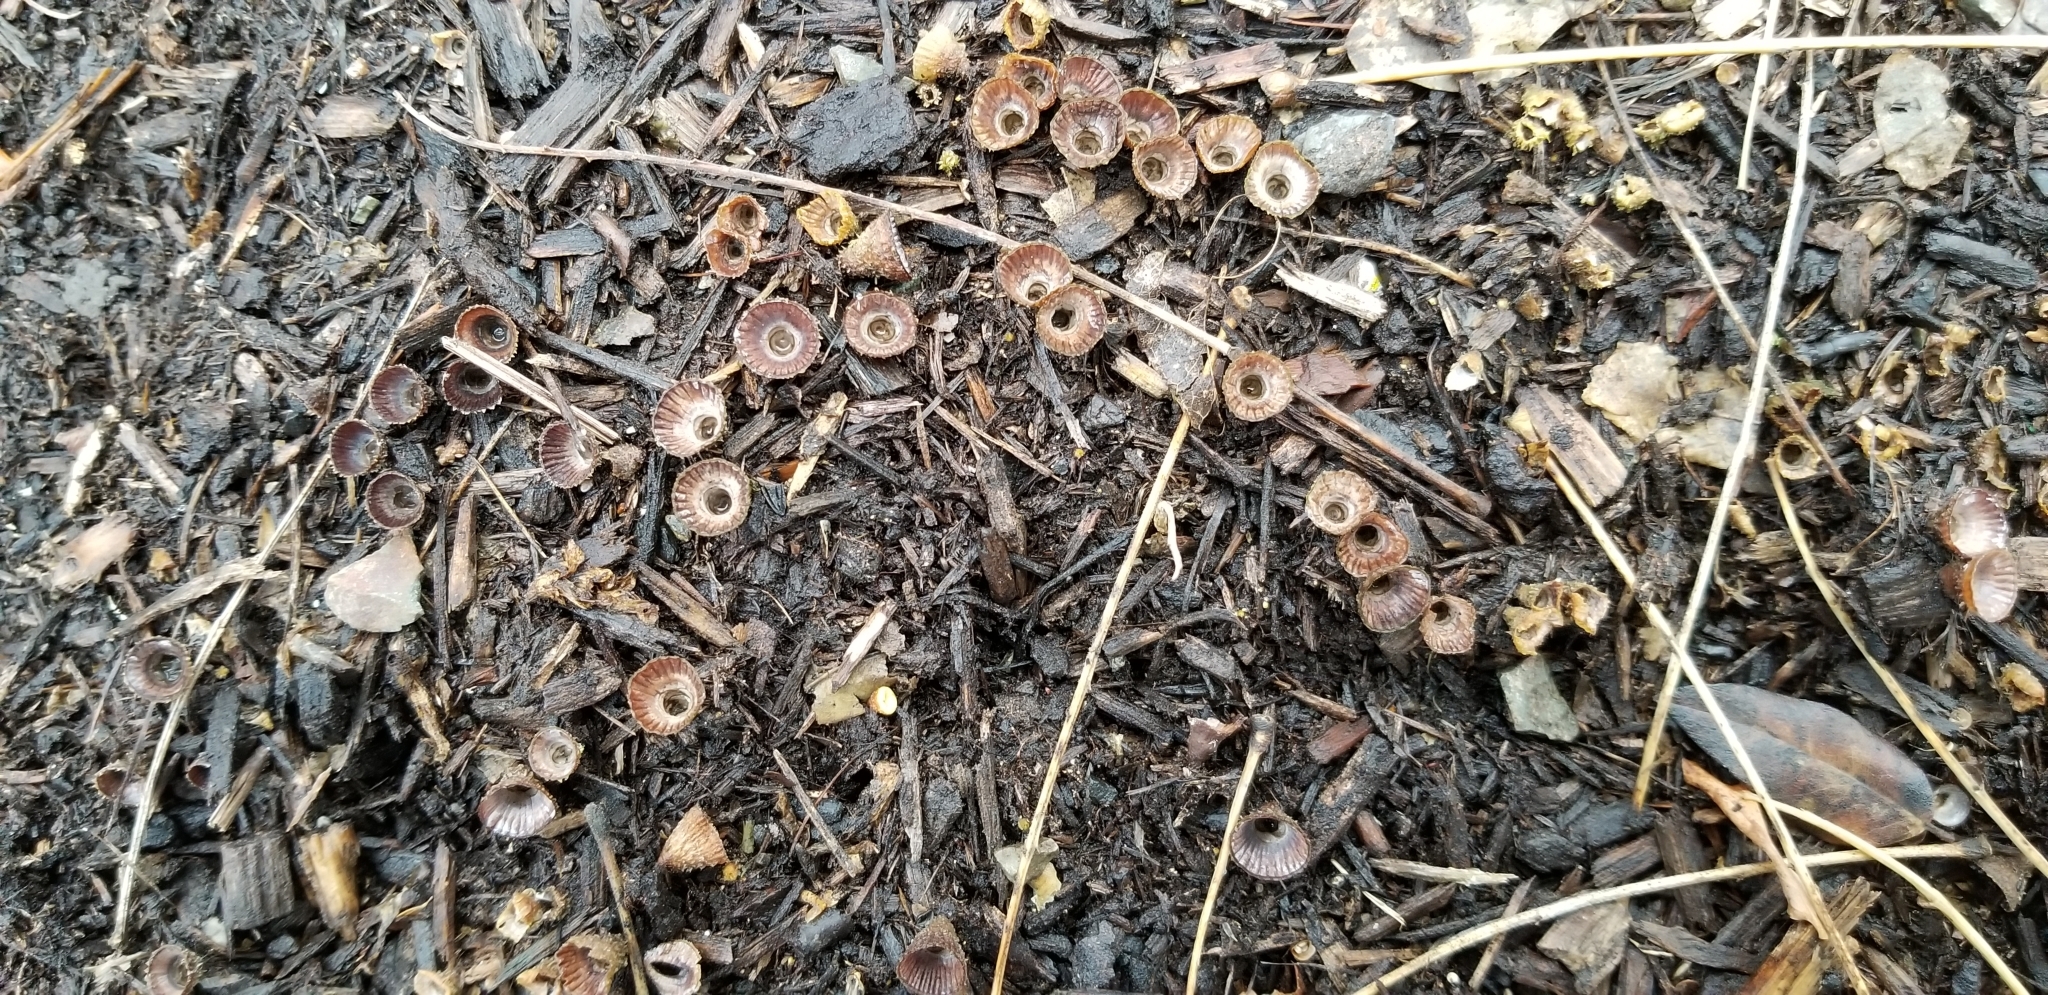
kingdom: Fungi
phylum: Basidiomycota
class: Agaricomycetes
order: Agaricales
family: Agaricaceae
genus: Cyathus
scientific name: Cyathus striatus
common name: Fluted bird's nest
